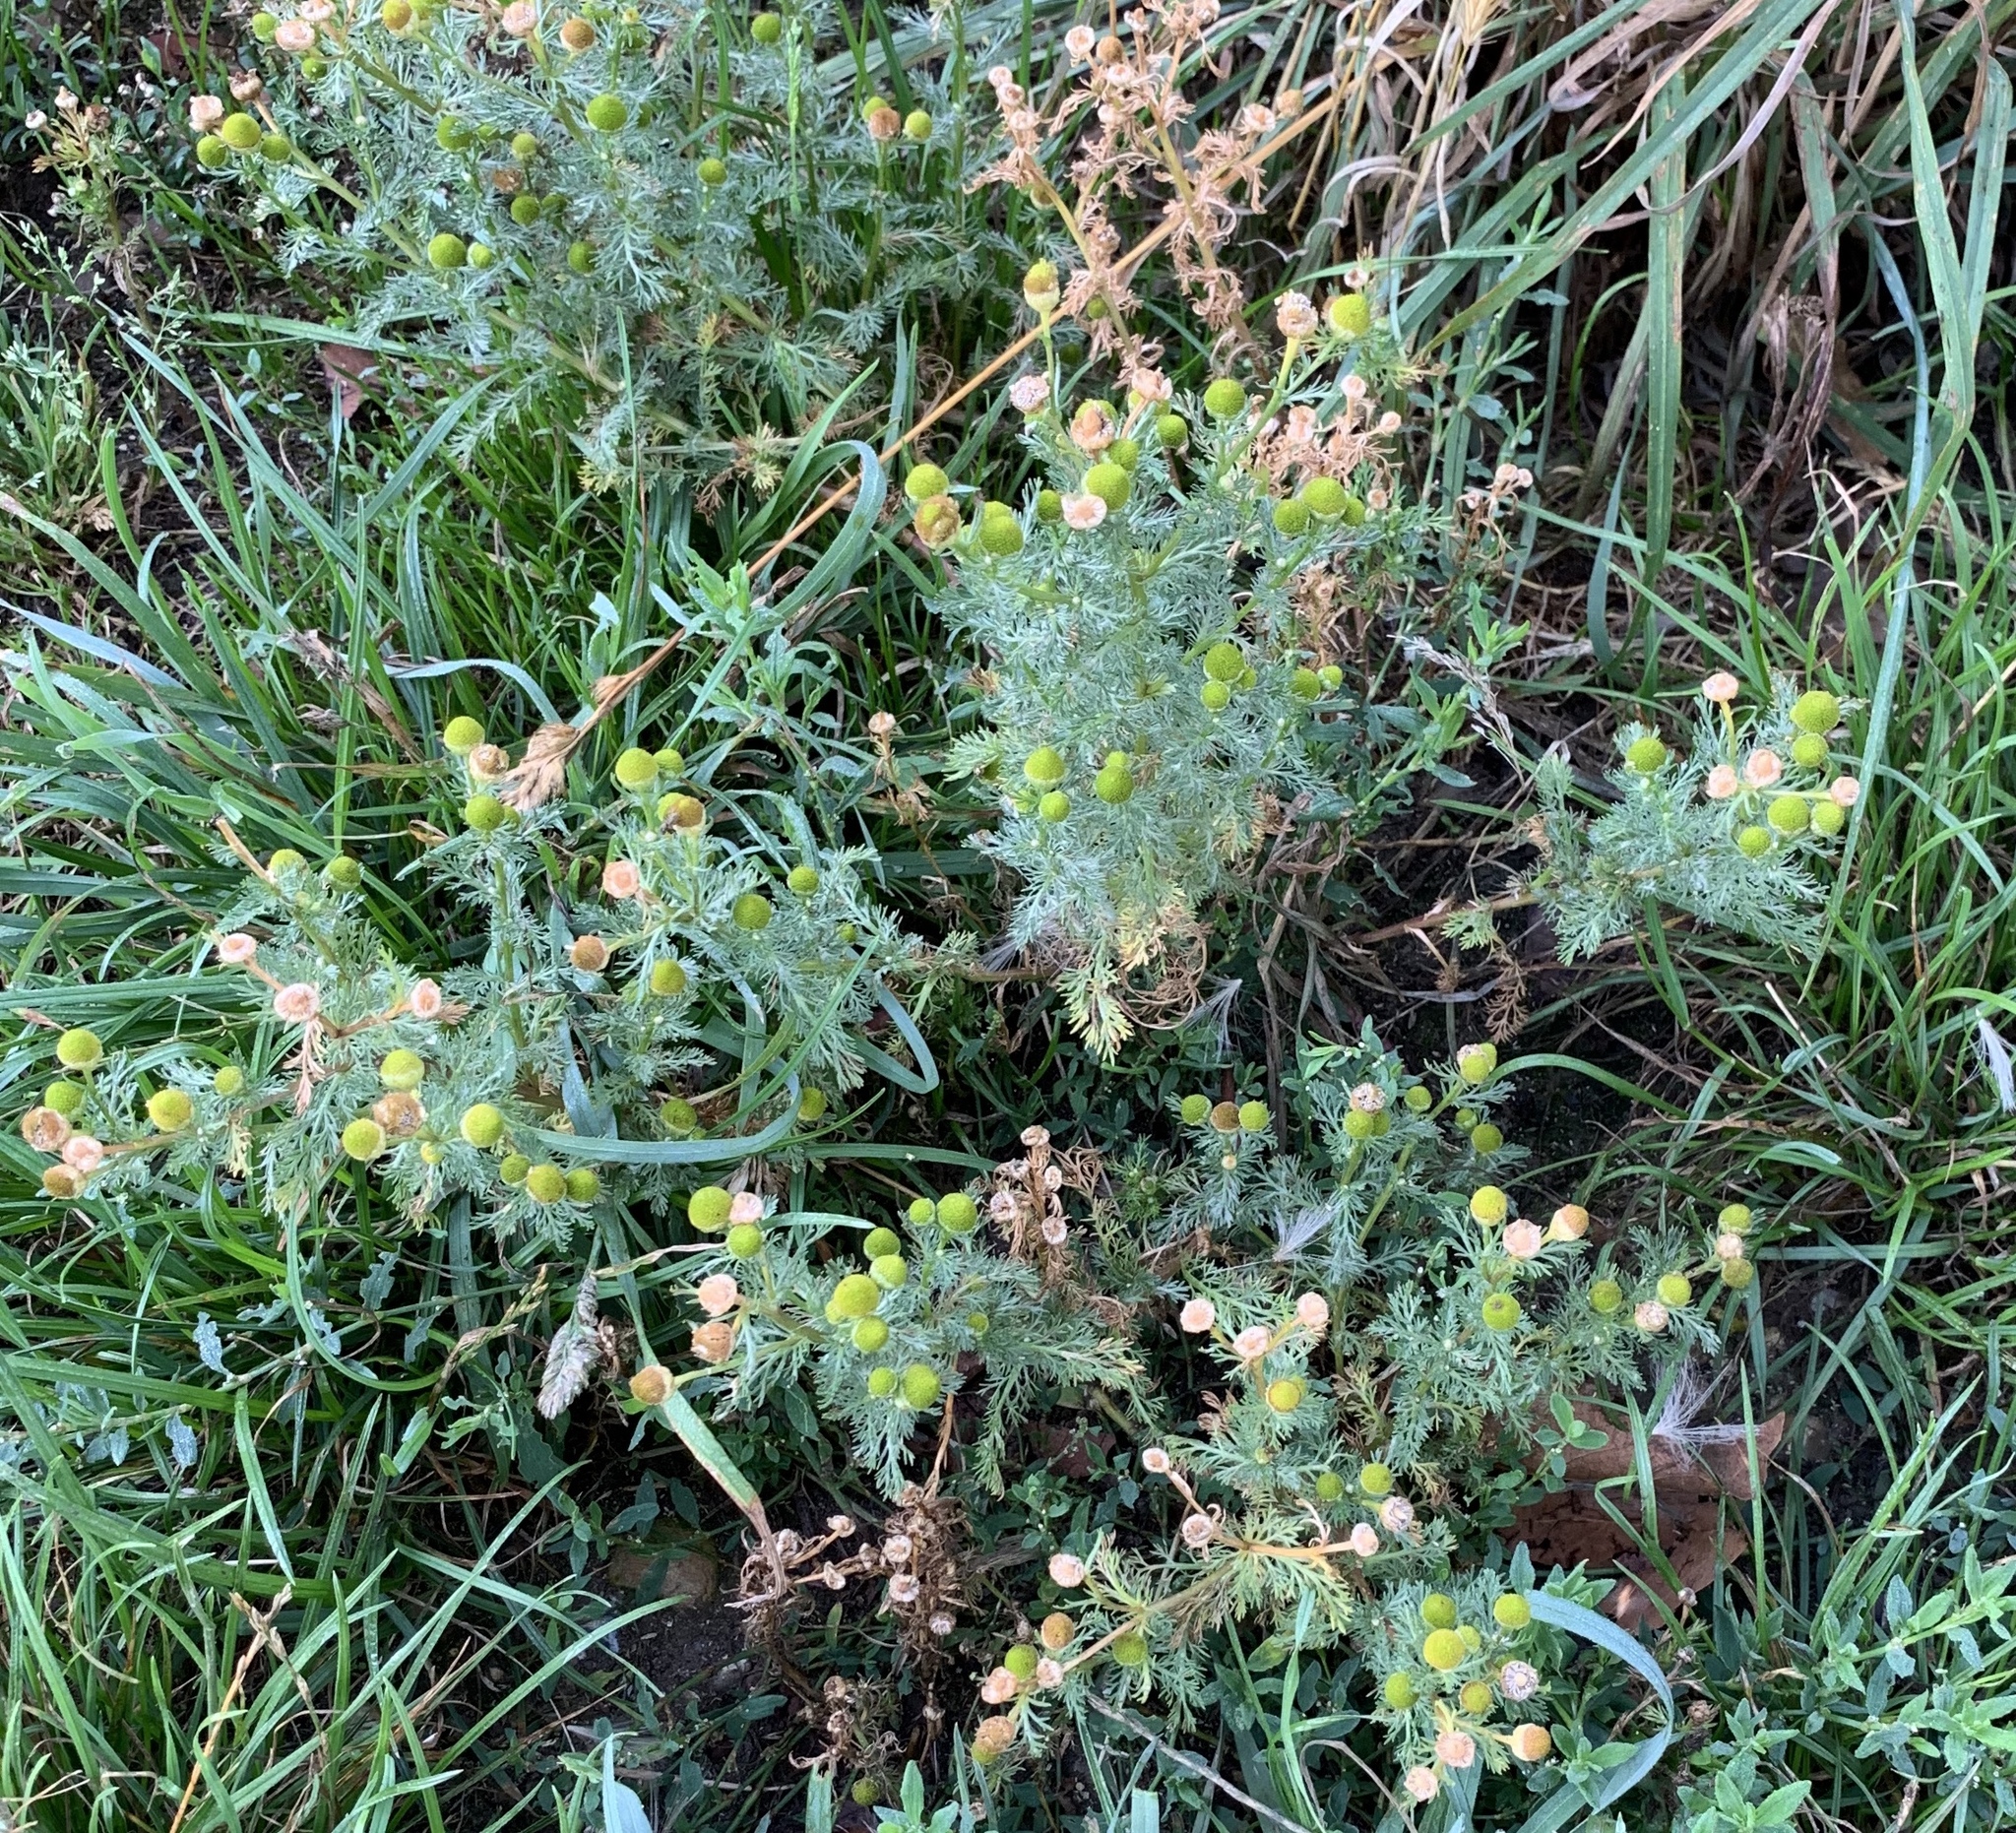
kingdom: Plantae
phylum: Tracheophyta
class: Magnoliopsida
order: Asterales
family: Asteraceae
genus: Matricaria
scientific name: Matricaria discoidea
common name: Disc mayweed
